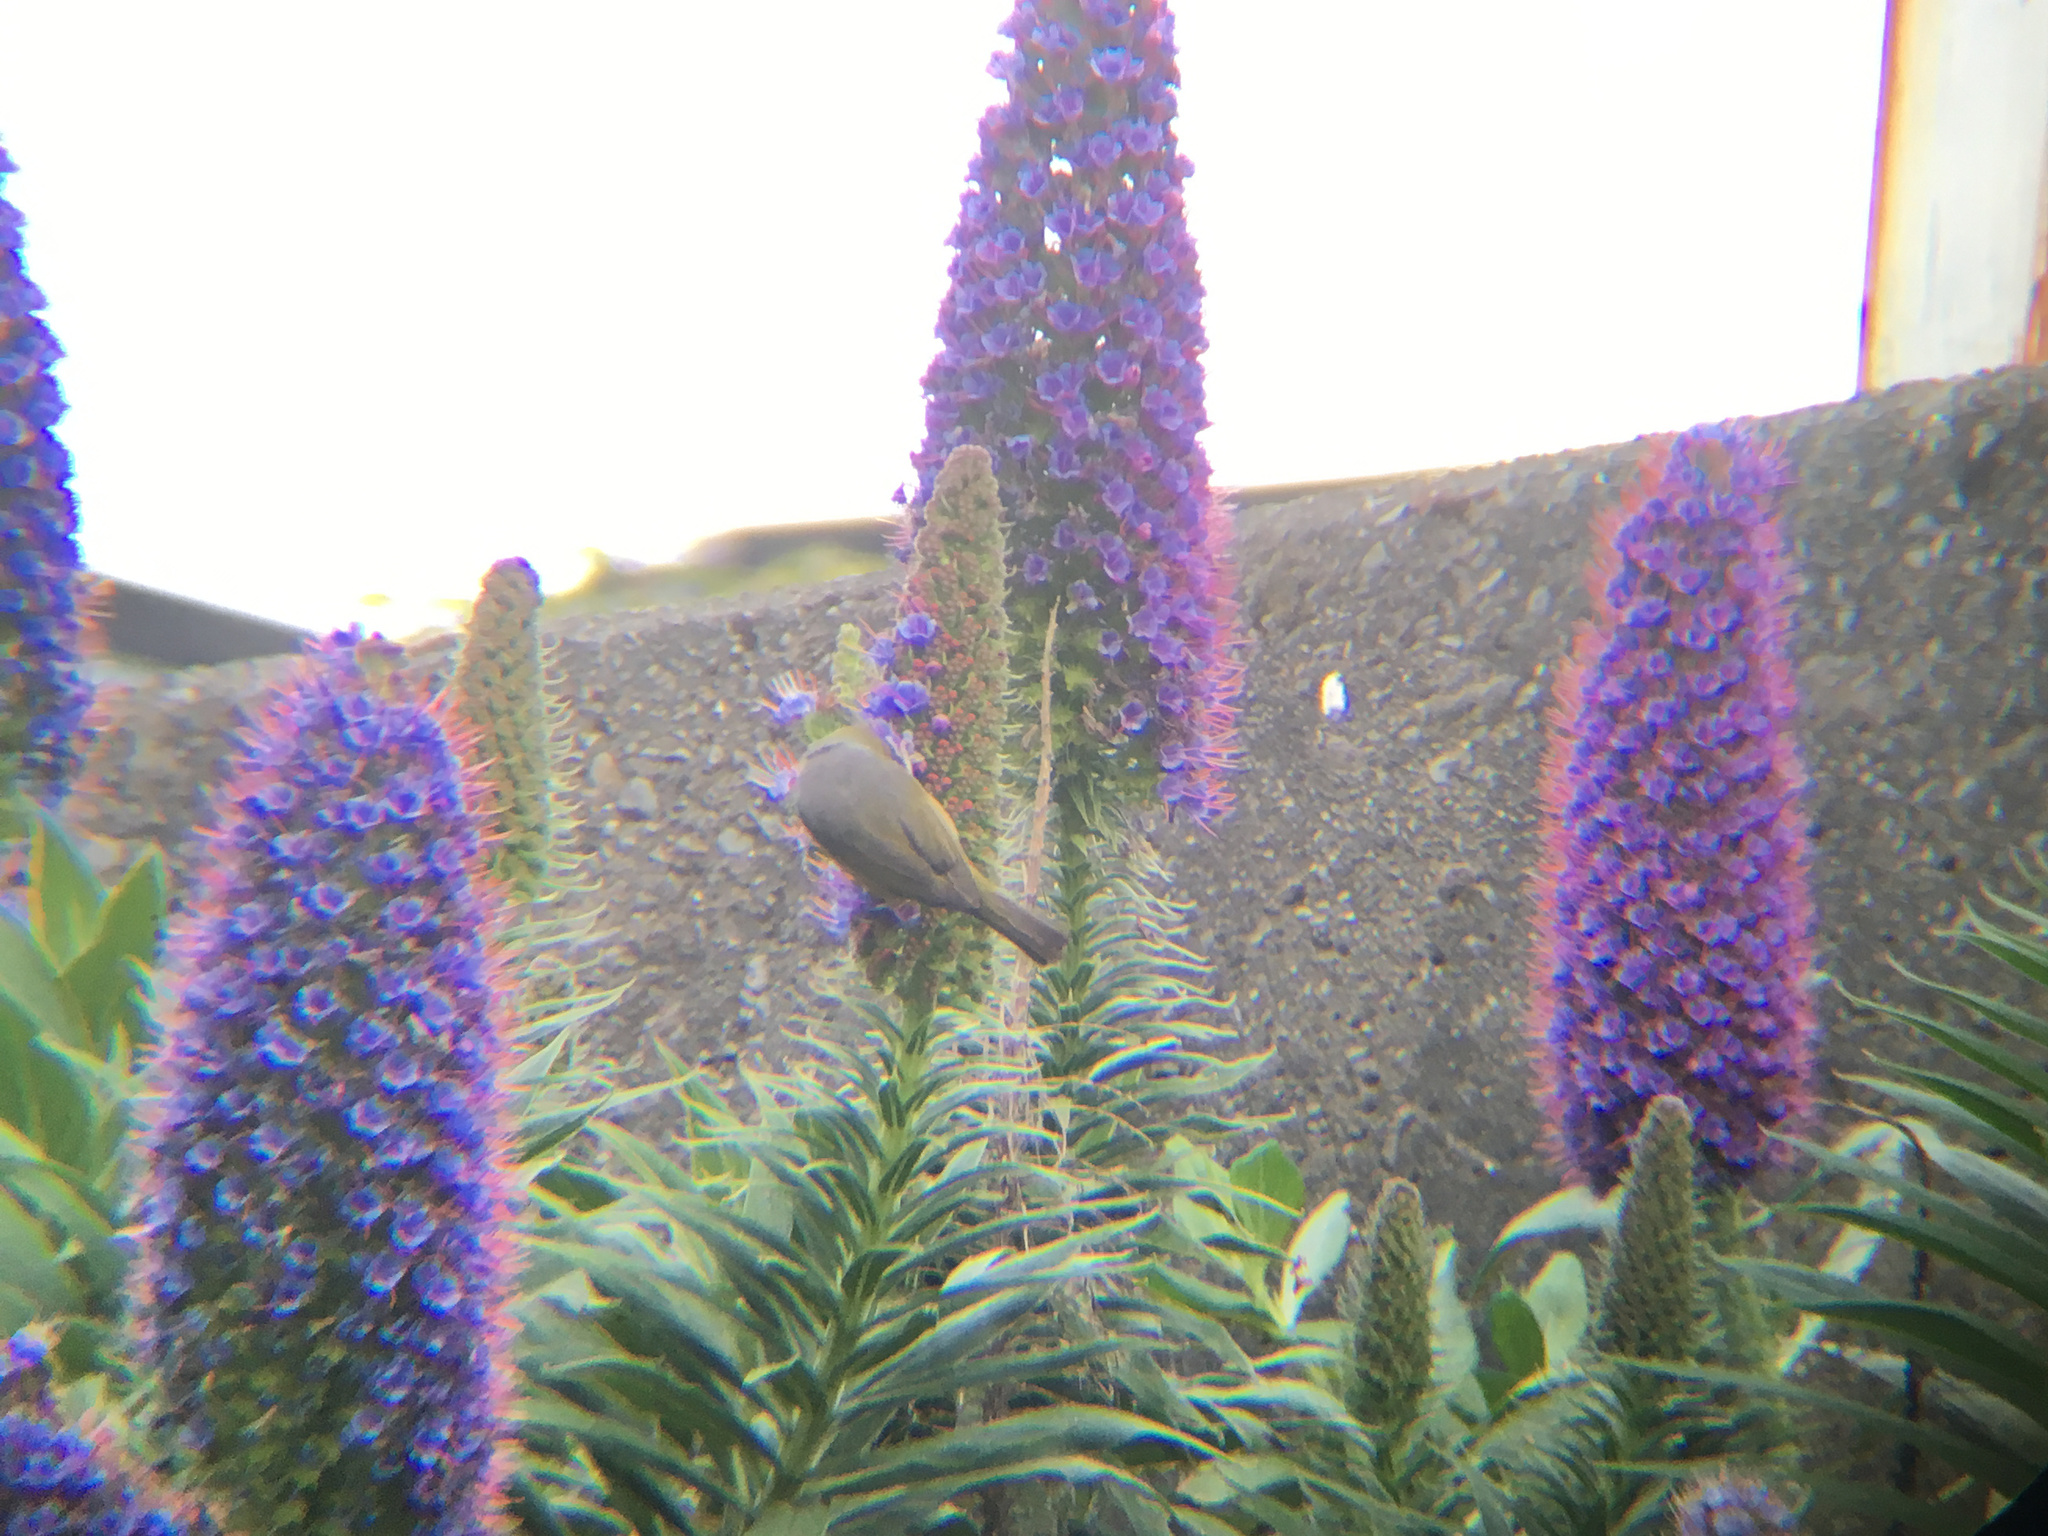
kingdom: Animalia
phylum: Chordata
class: Aves
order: Passeriformes
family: Zosteropidae
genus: Zosterops
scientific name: Zosterops lateralis
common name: Silvereye
